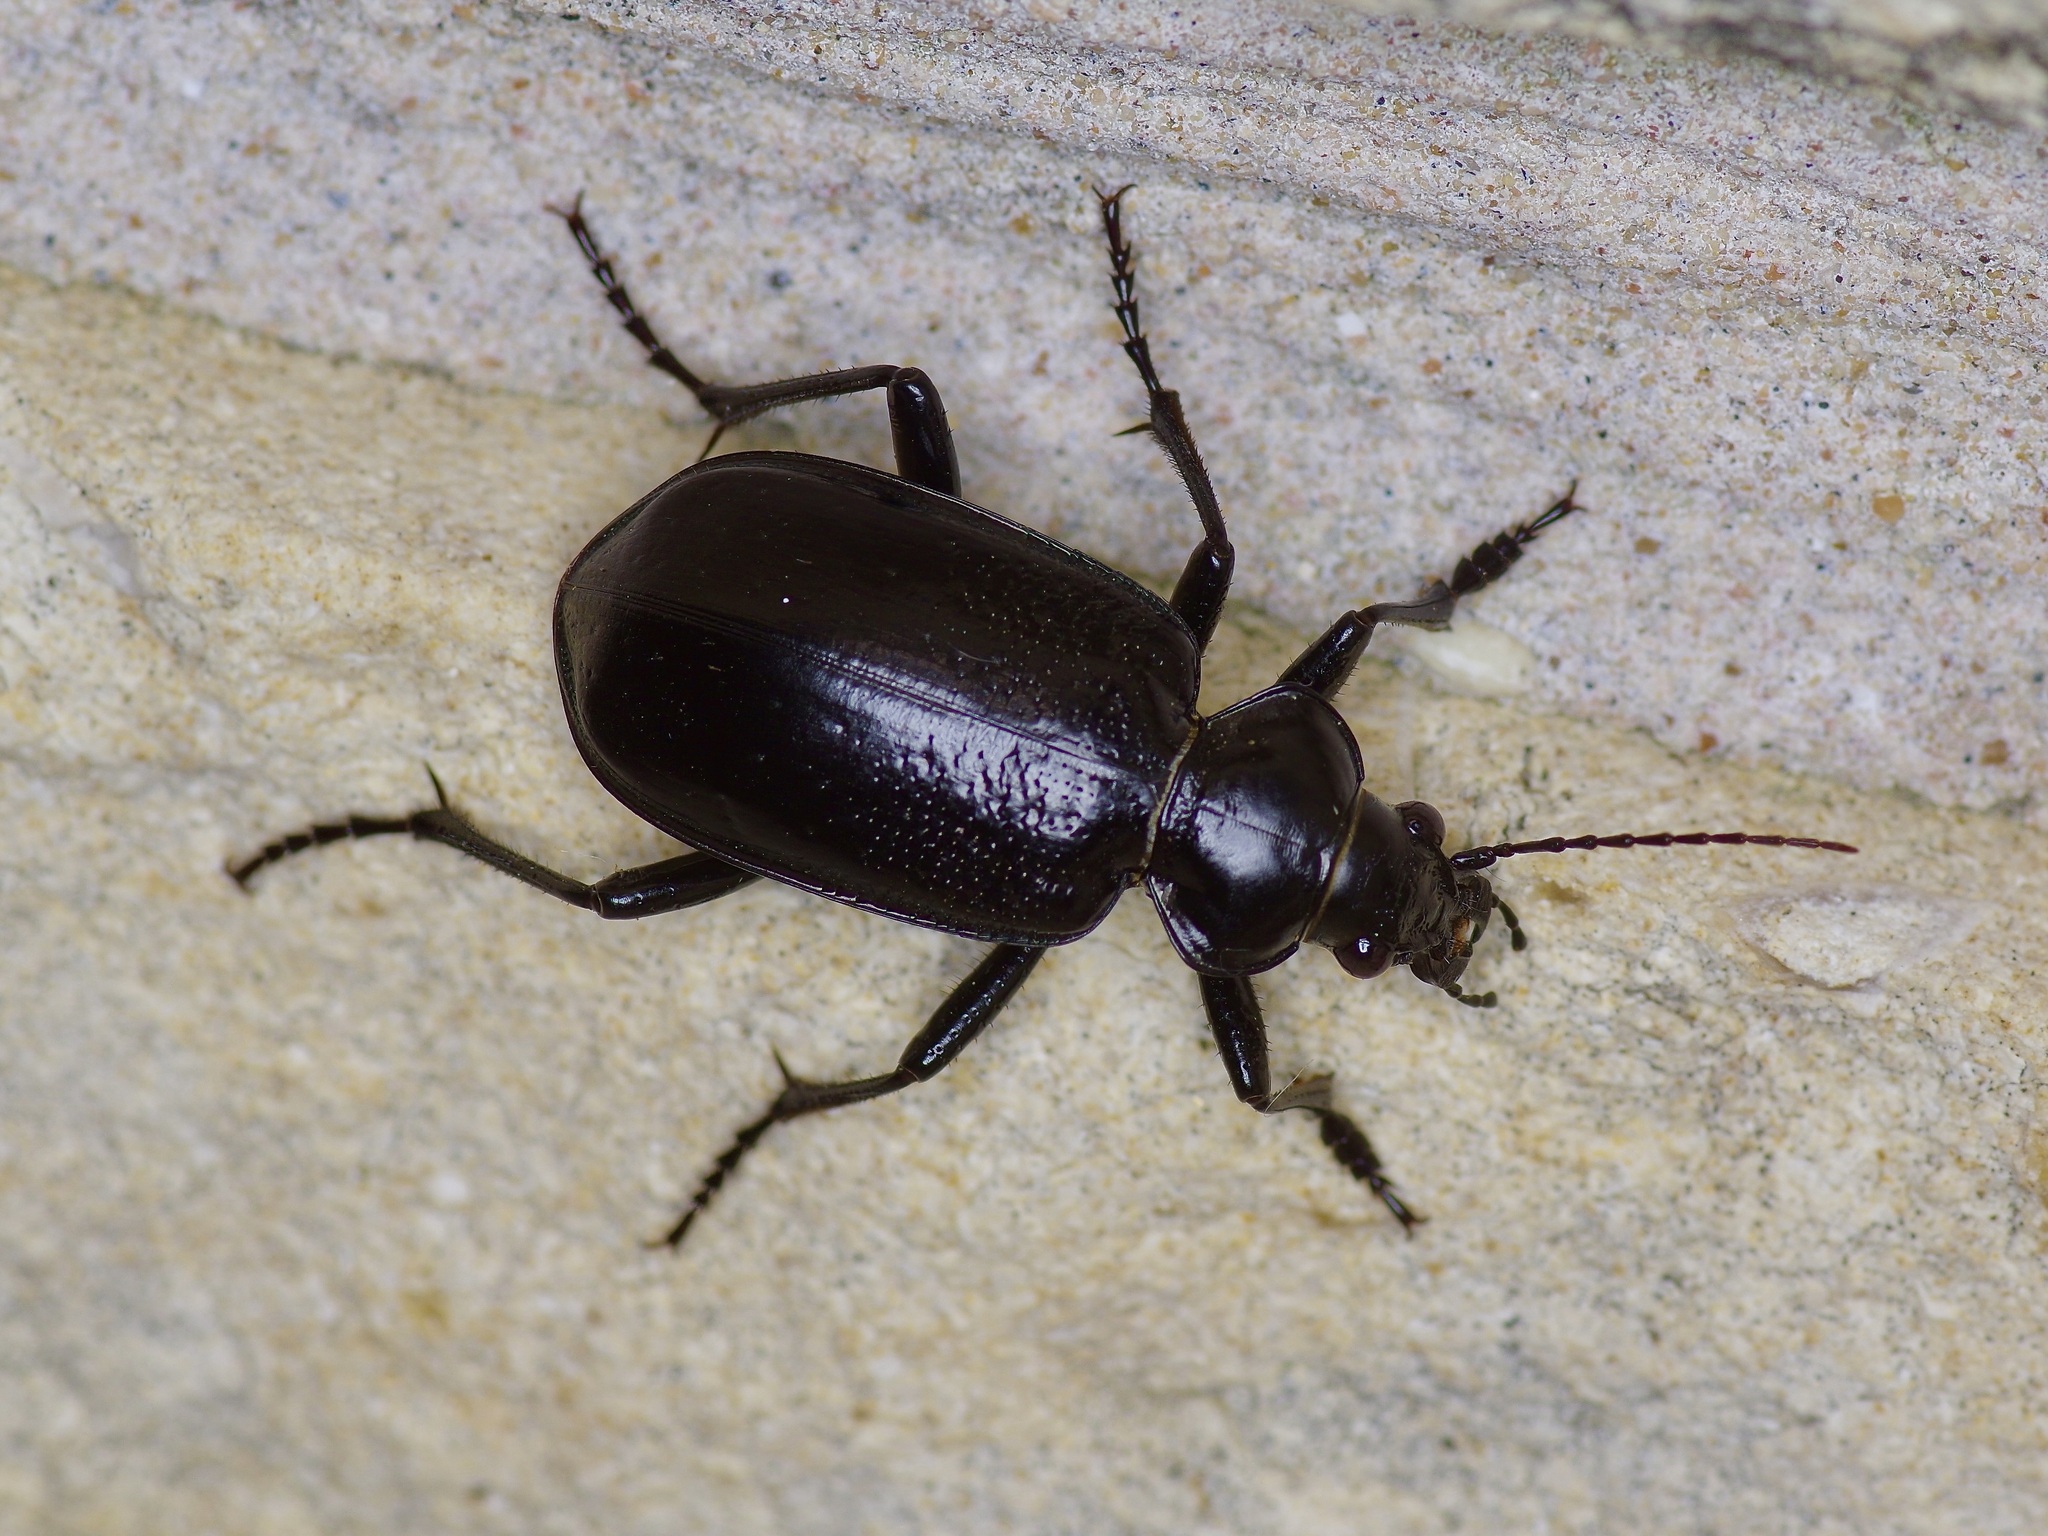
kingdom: Animalia
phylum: Arthropoda
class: Insecta
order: Coleoptera
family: Carabidae
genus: Calosoma
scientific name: Calosoma marginale
